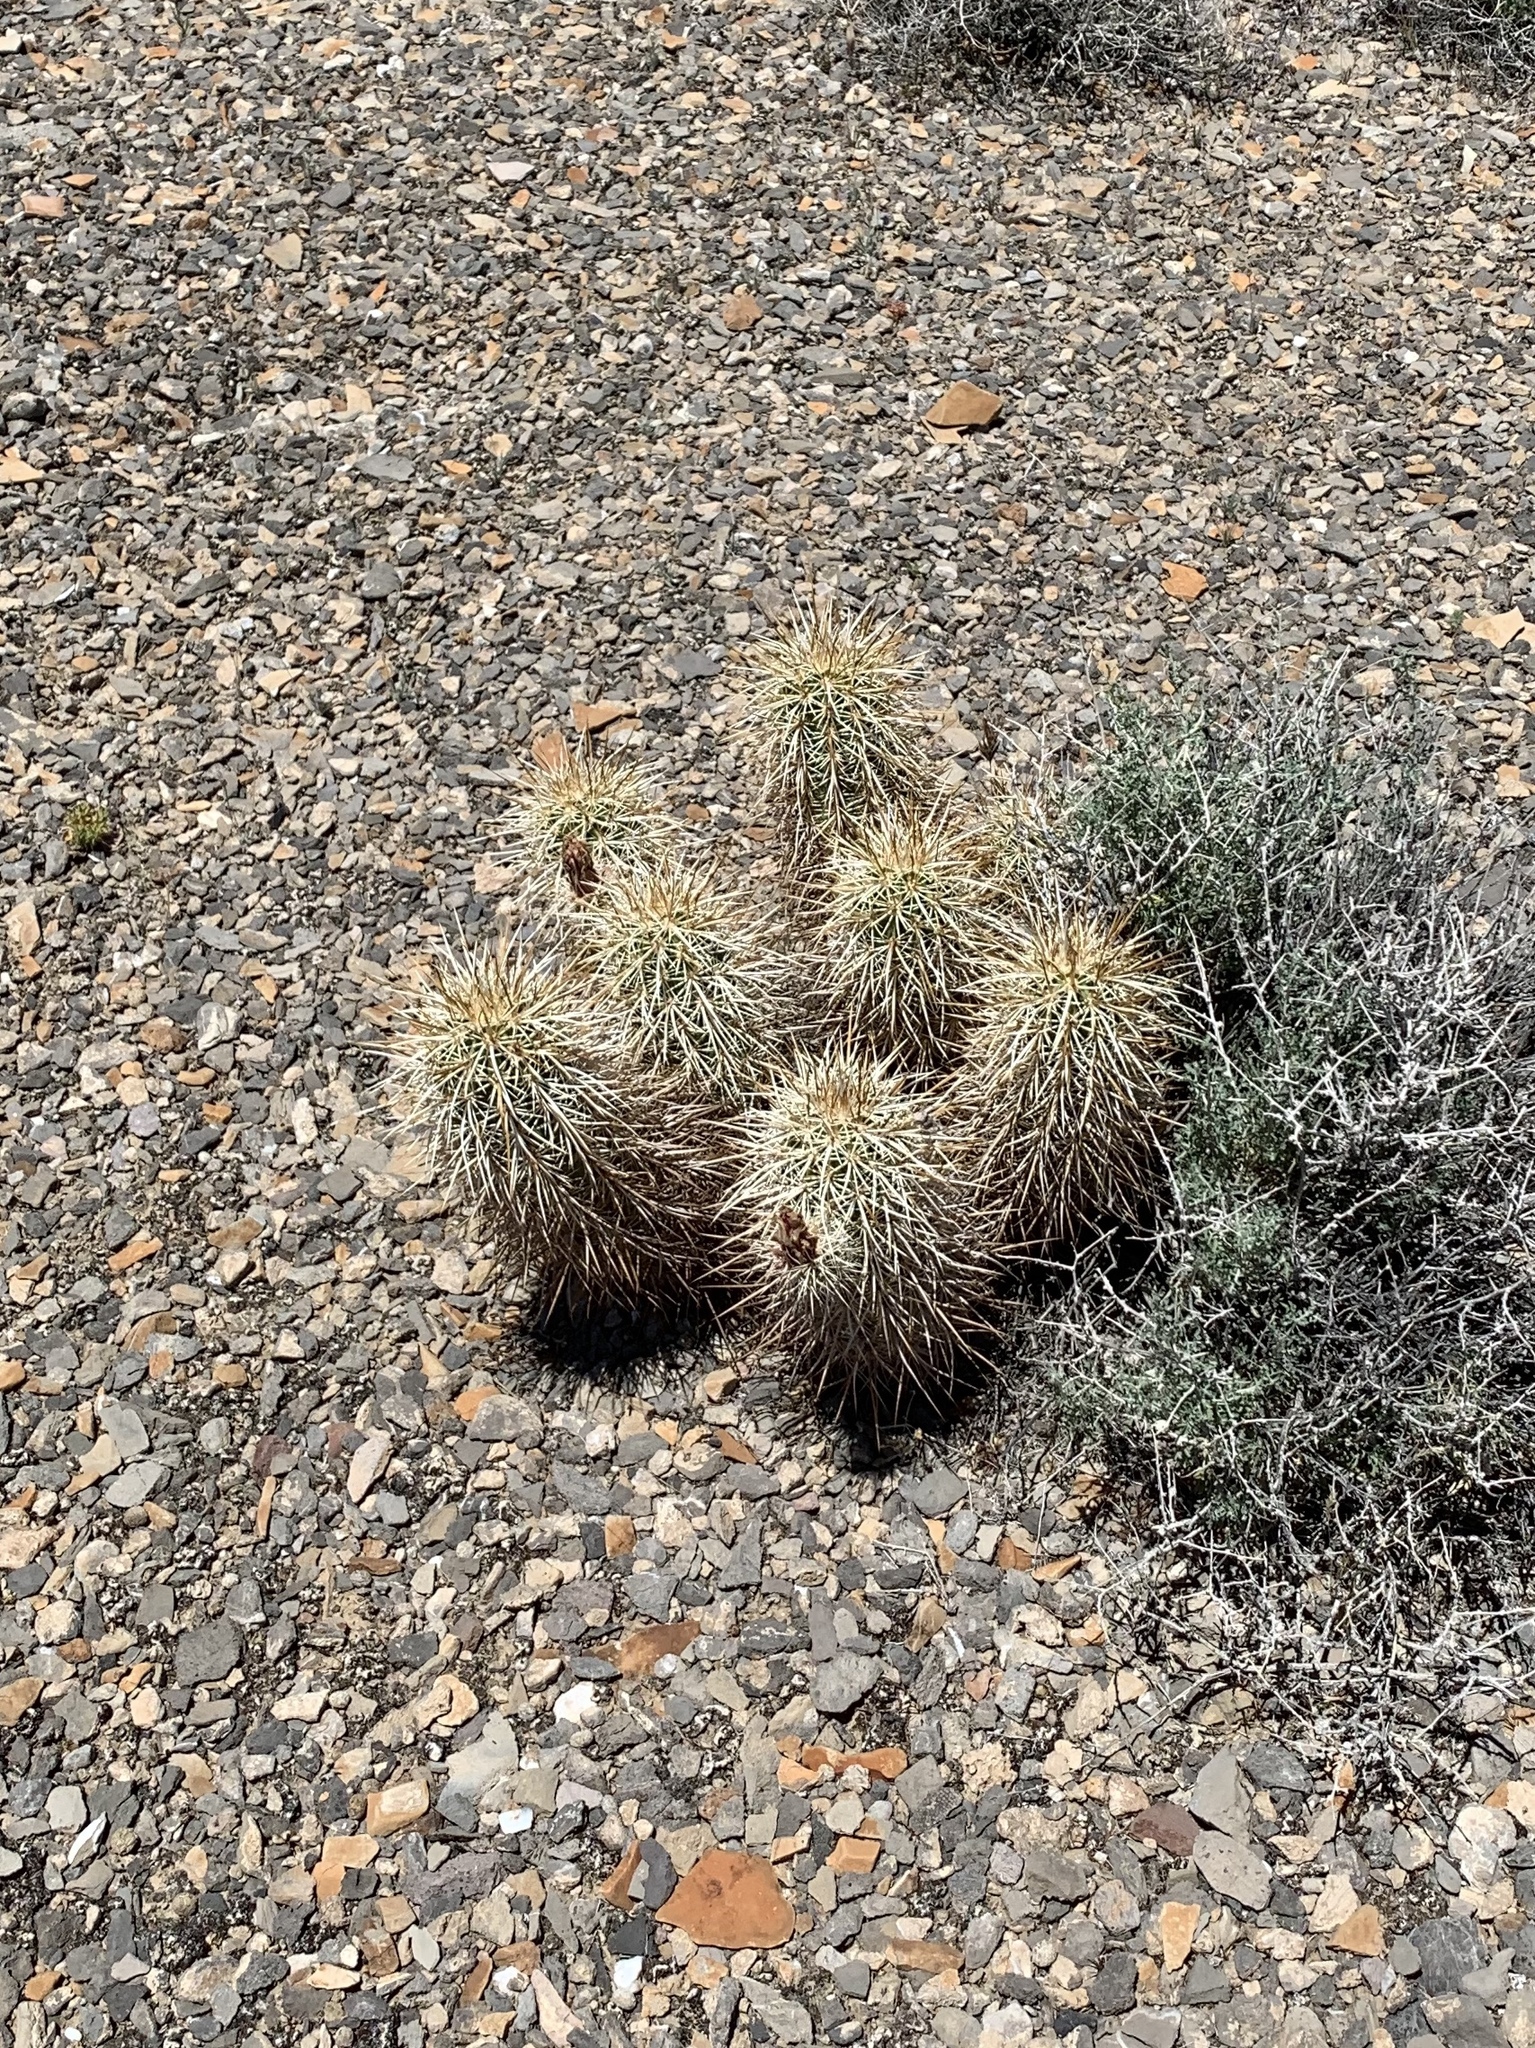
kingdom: Plantae
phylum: Tracheophyta
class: Magnoliopsida
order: Caryophyllales
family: Cactaceae
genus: Echinocereus
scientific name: Echinocereus engelmannii
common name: Engelmann's hedgehog cactus
